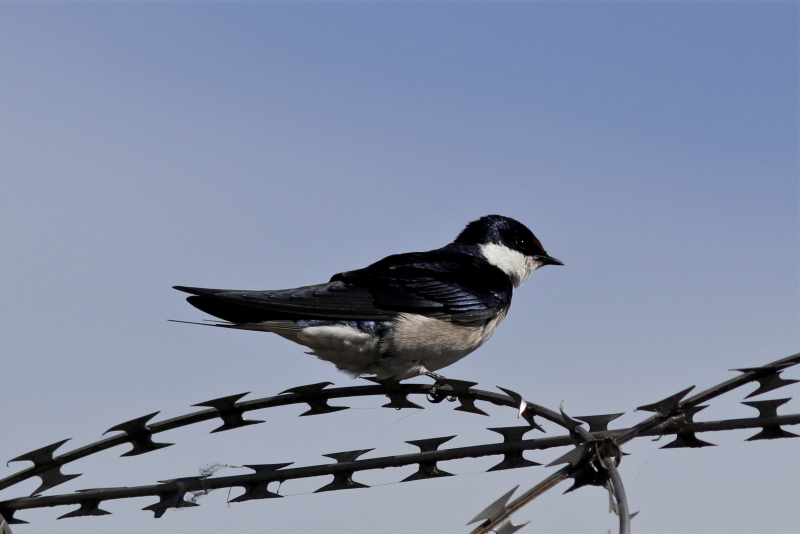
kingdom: Animalia
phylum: Chordata
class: Aves
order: Passeriformes
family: Hirundinidae
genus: Hirundo
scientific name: Hirundo albigularis
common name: White-throated swallow
